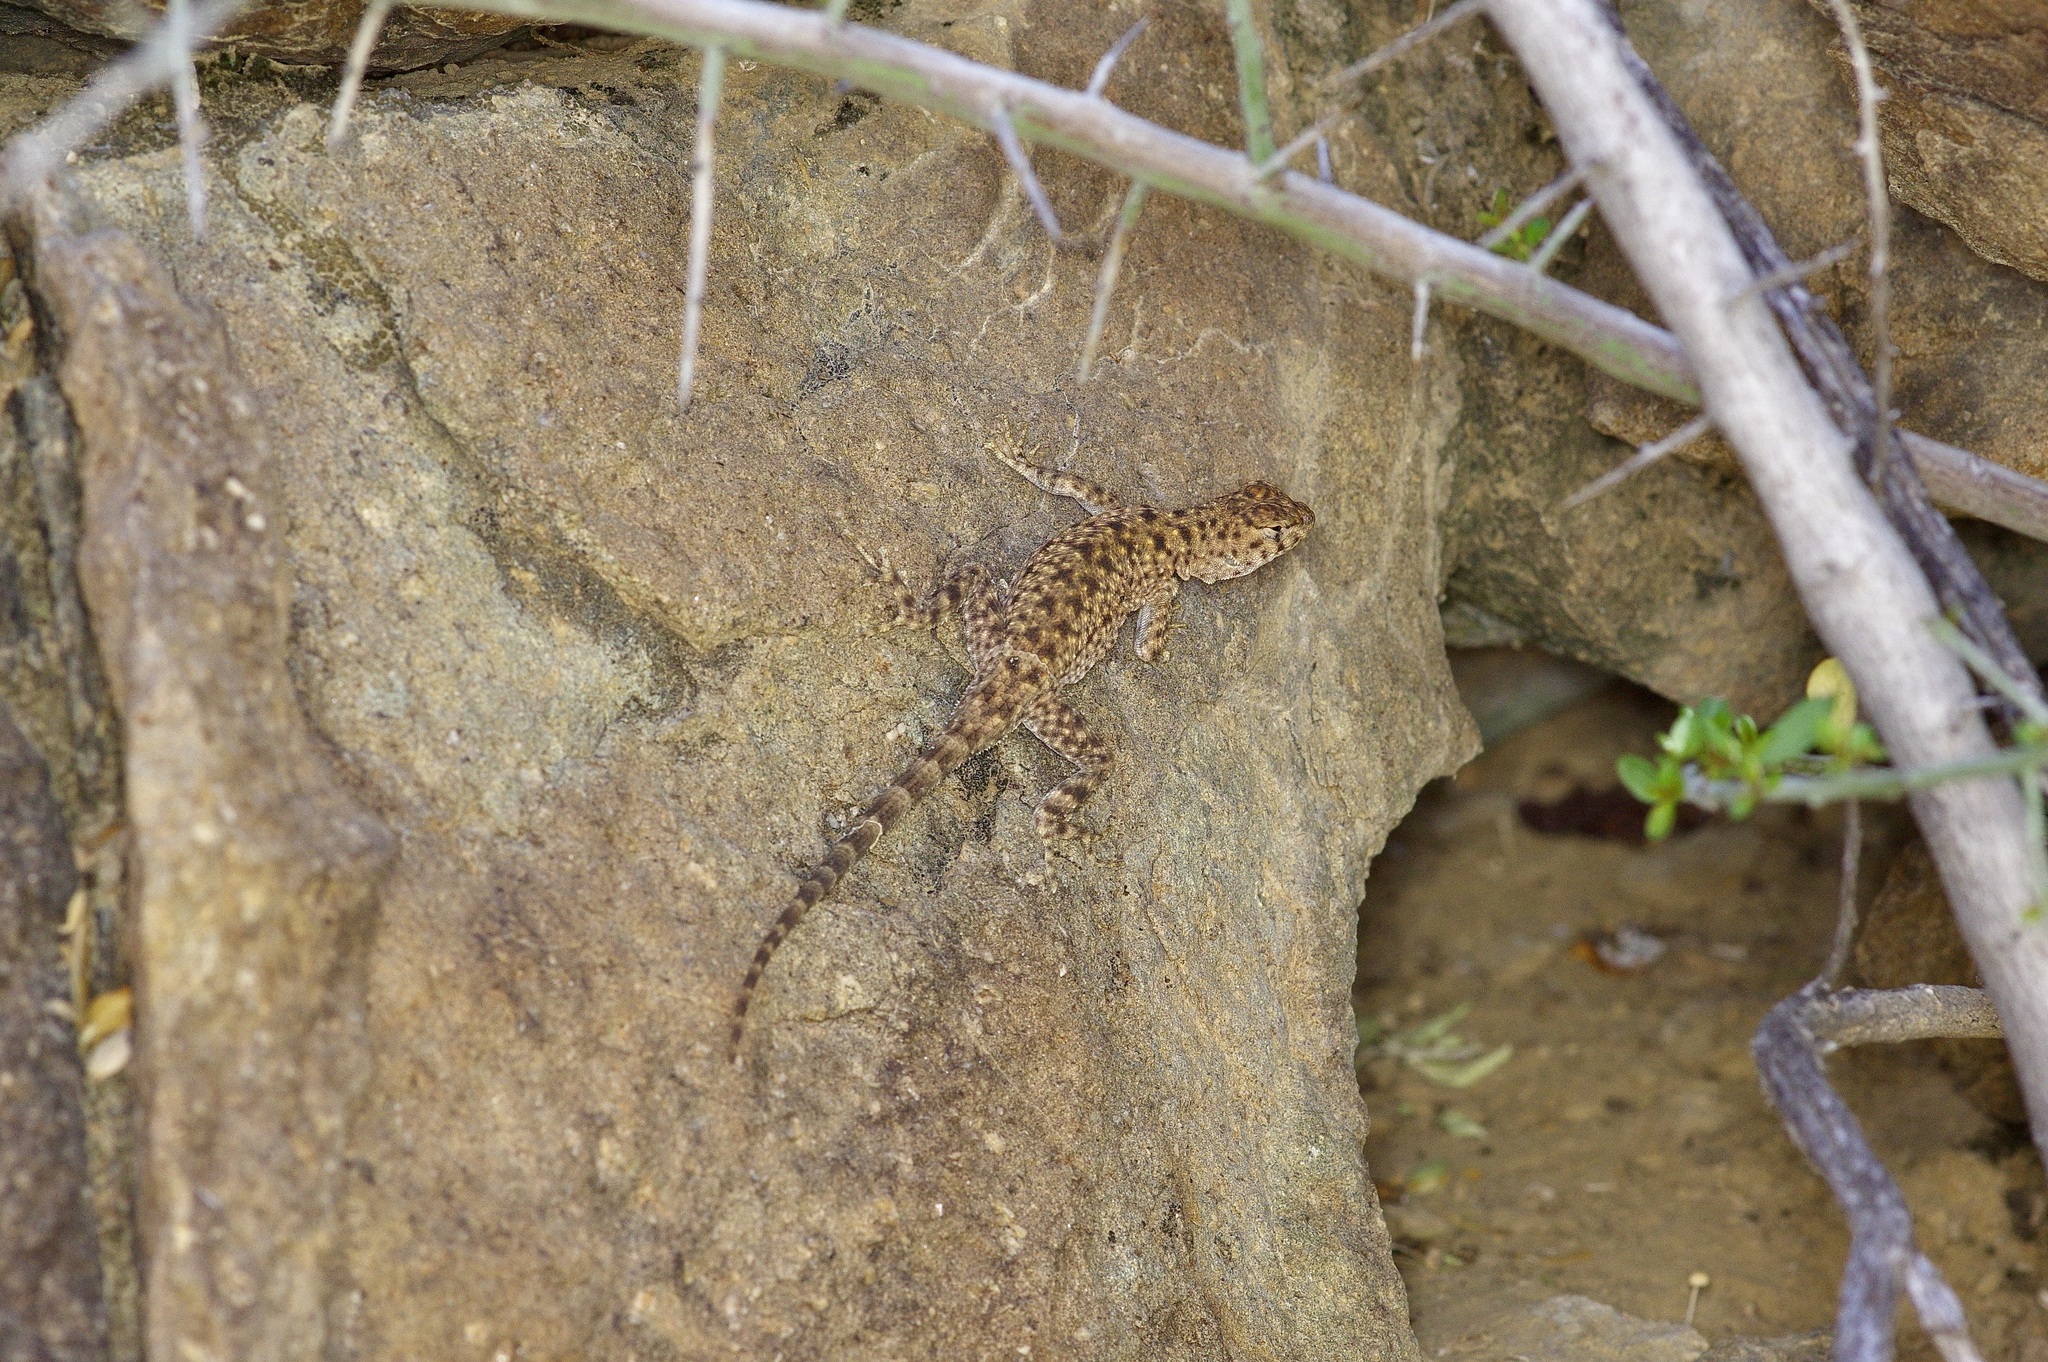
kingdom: Animalia
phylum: Chordata
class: Squamata
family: Phrynosomatidae
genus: Sceloporus
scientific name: Sceloporus merriami
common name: Canyon lizard
